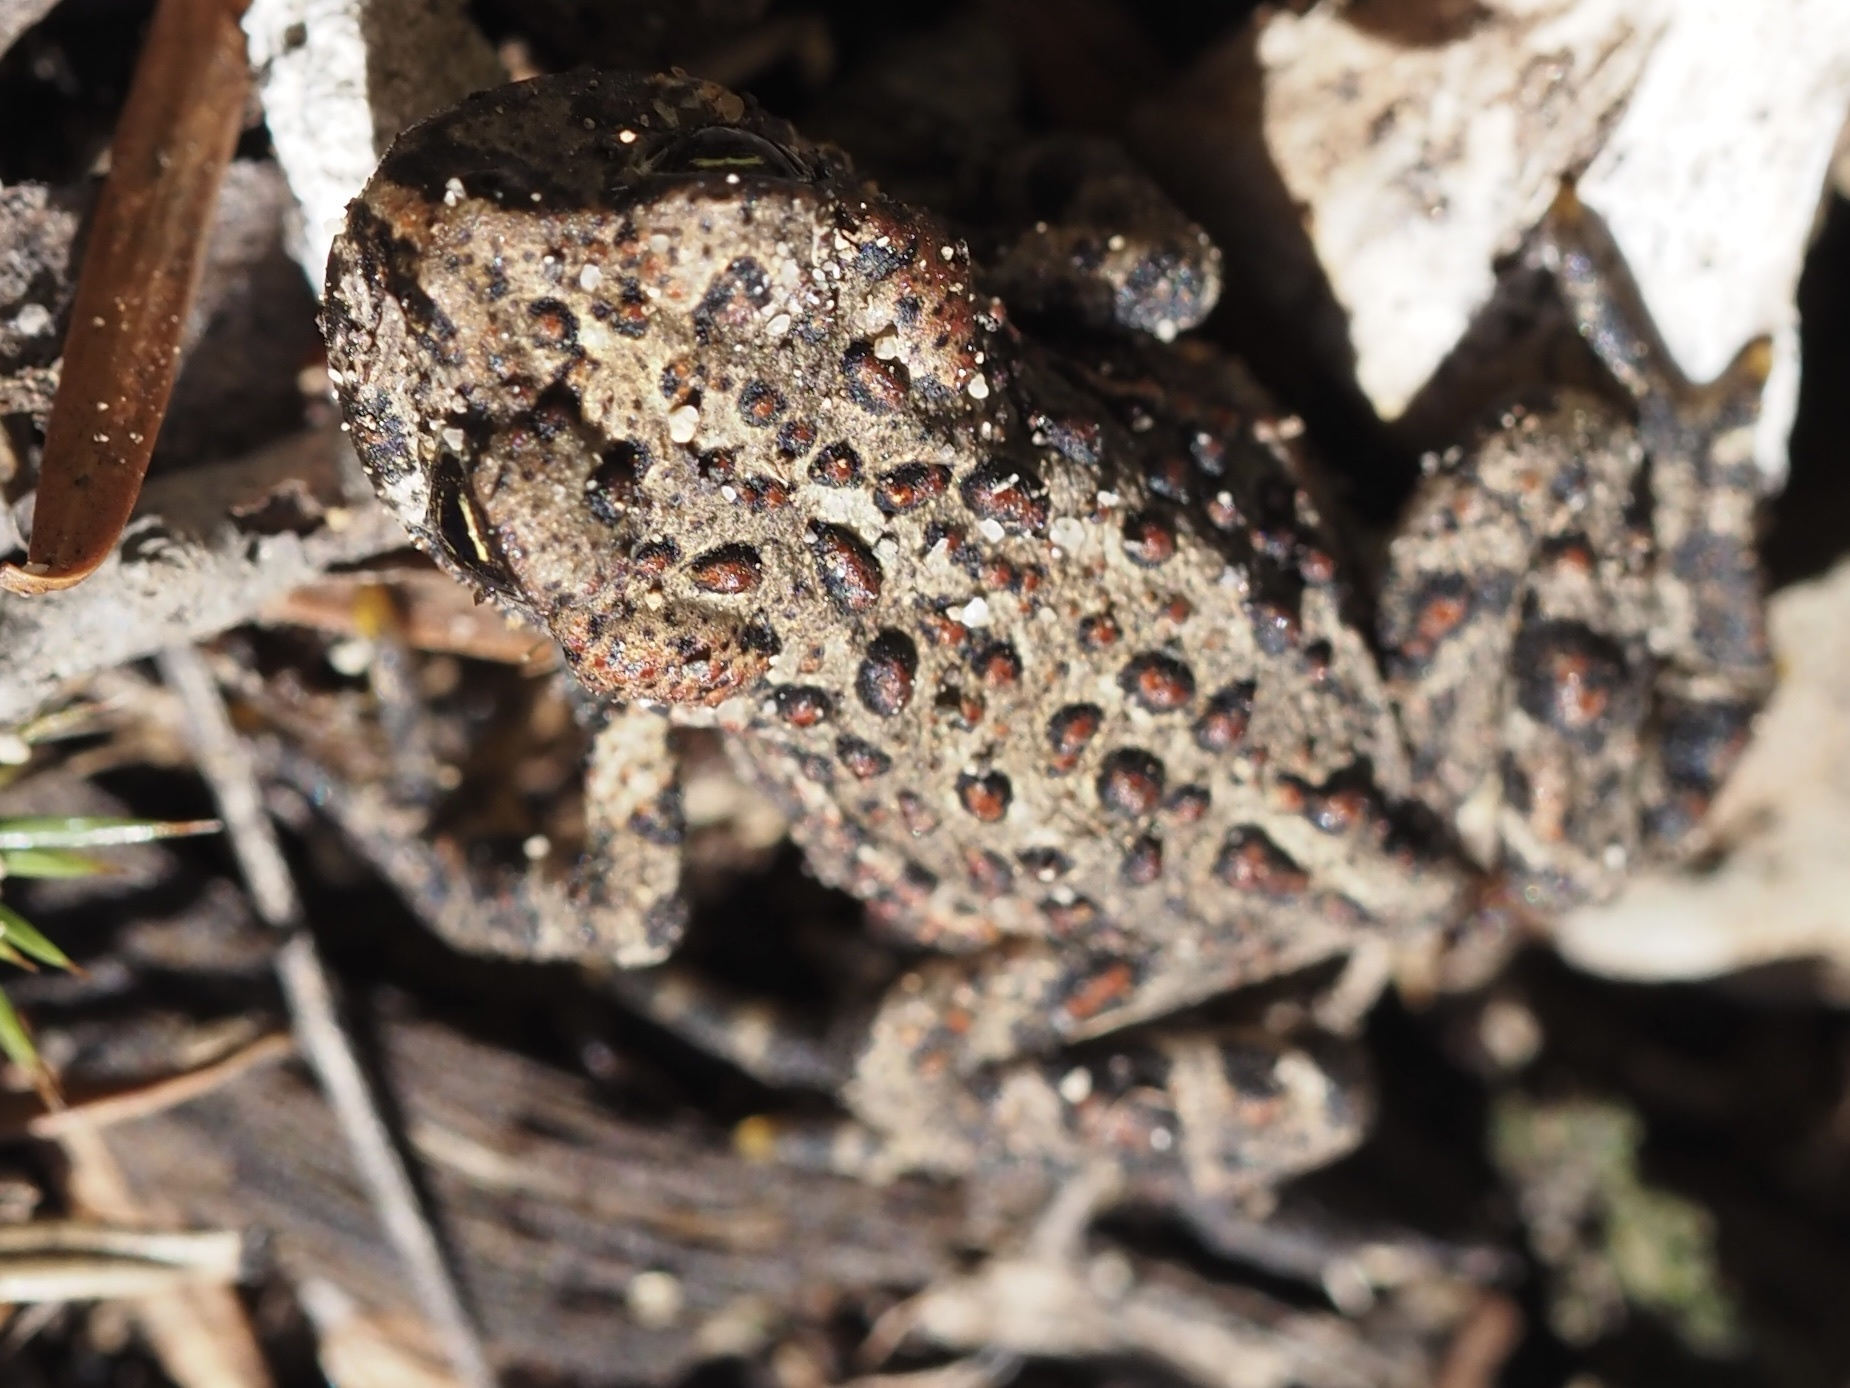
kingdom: Animalia
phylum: Chordata
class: Amphibia
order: Anura
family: Bufonidae
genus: Anaxyrus
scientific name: Anaxyrus boreas
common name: Western toad
